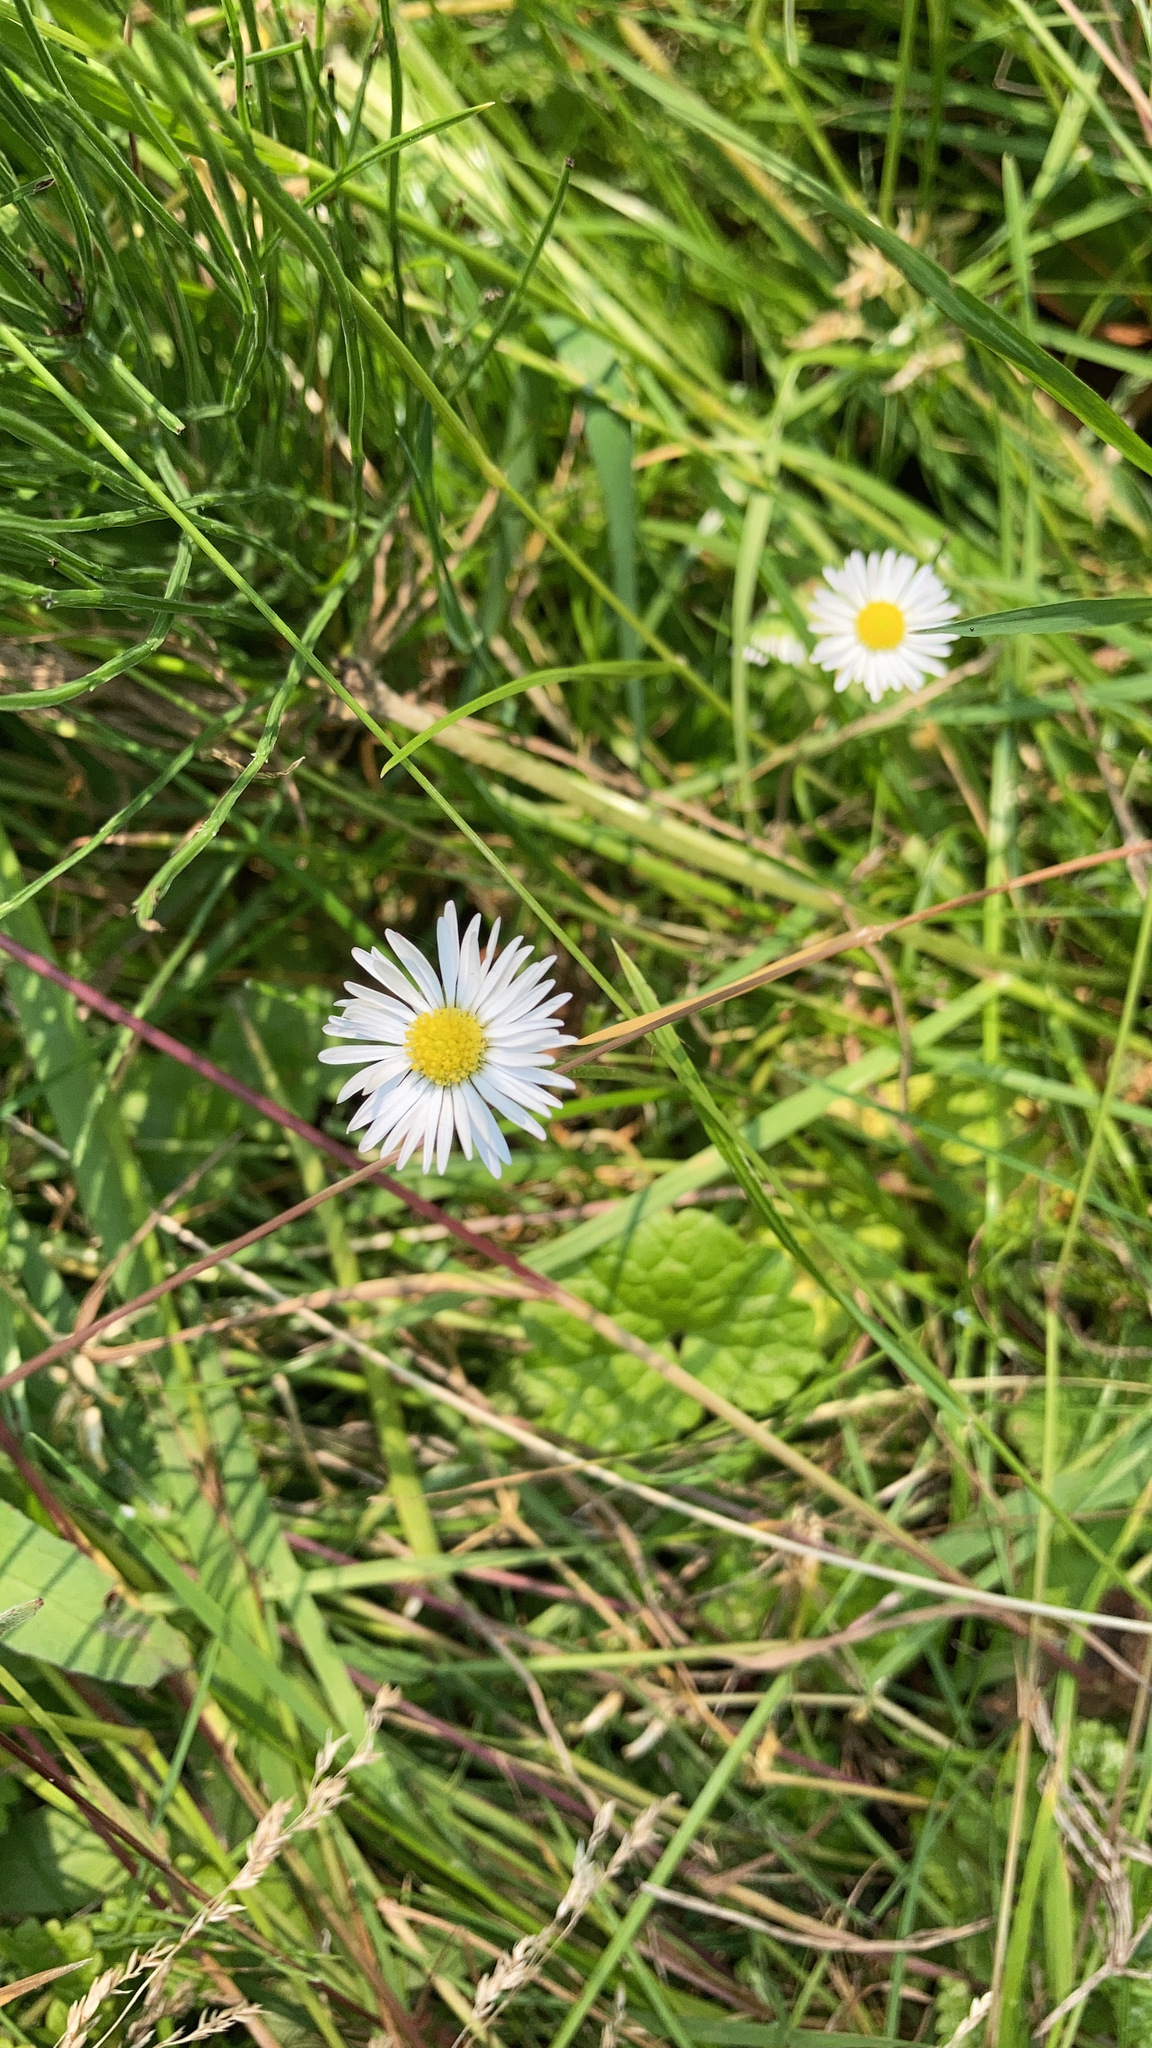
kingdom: Plantae
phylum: Tracheophyta
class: Magnoliopsida
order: Asterales
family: Asteraceae
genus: Bellis
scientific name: Bellis perennis
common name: Lawndaisy
